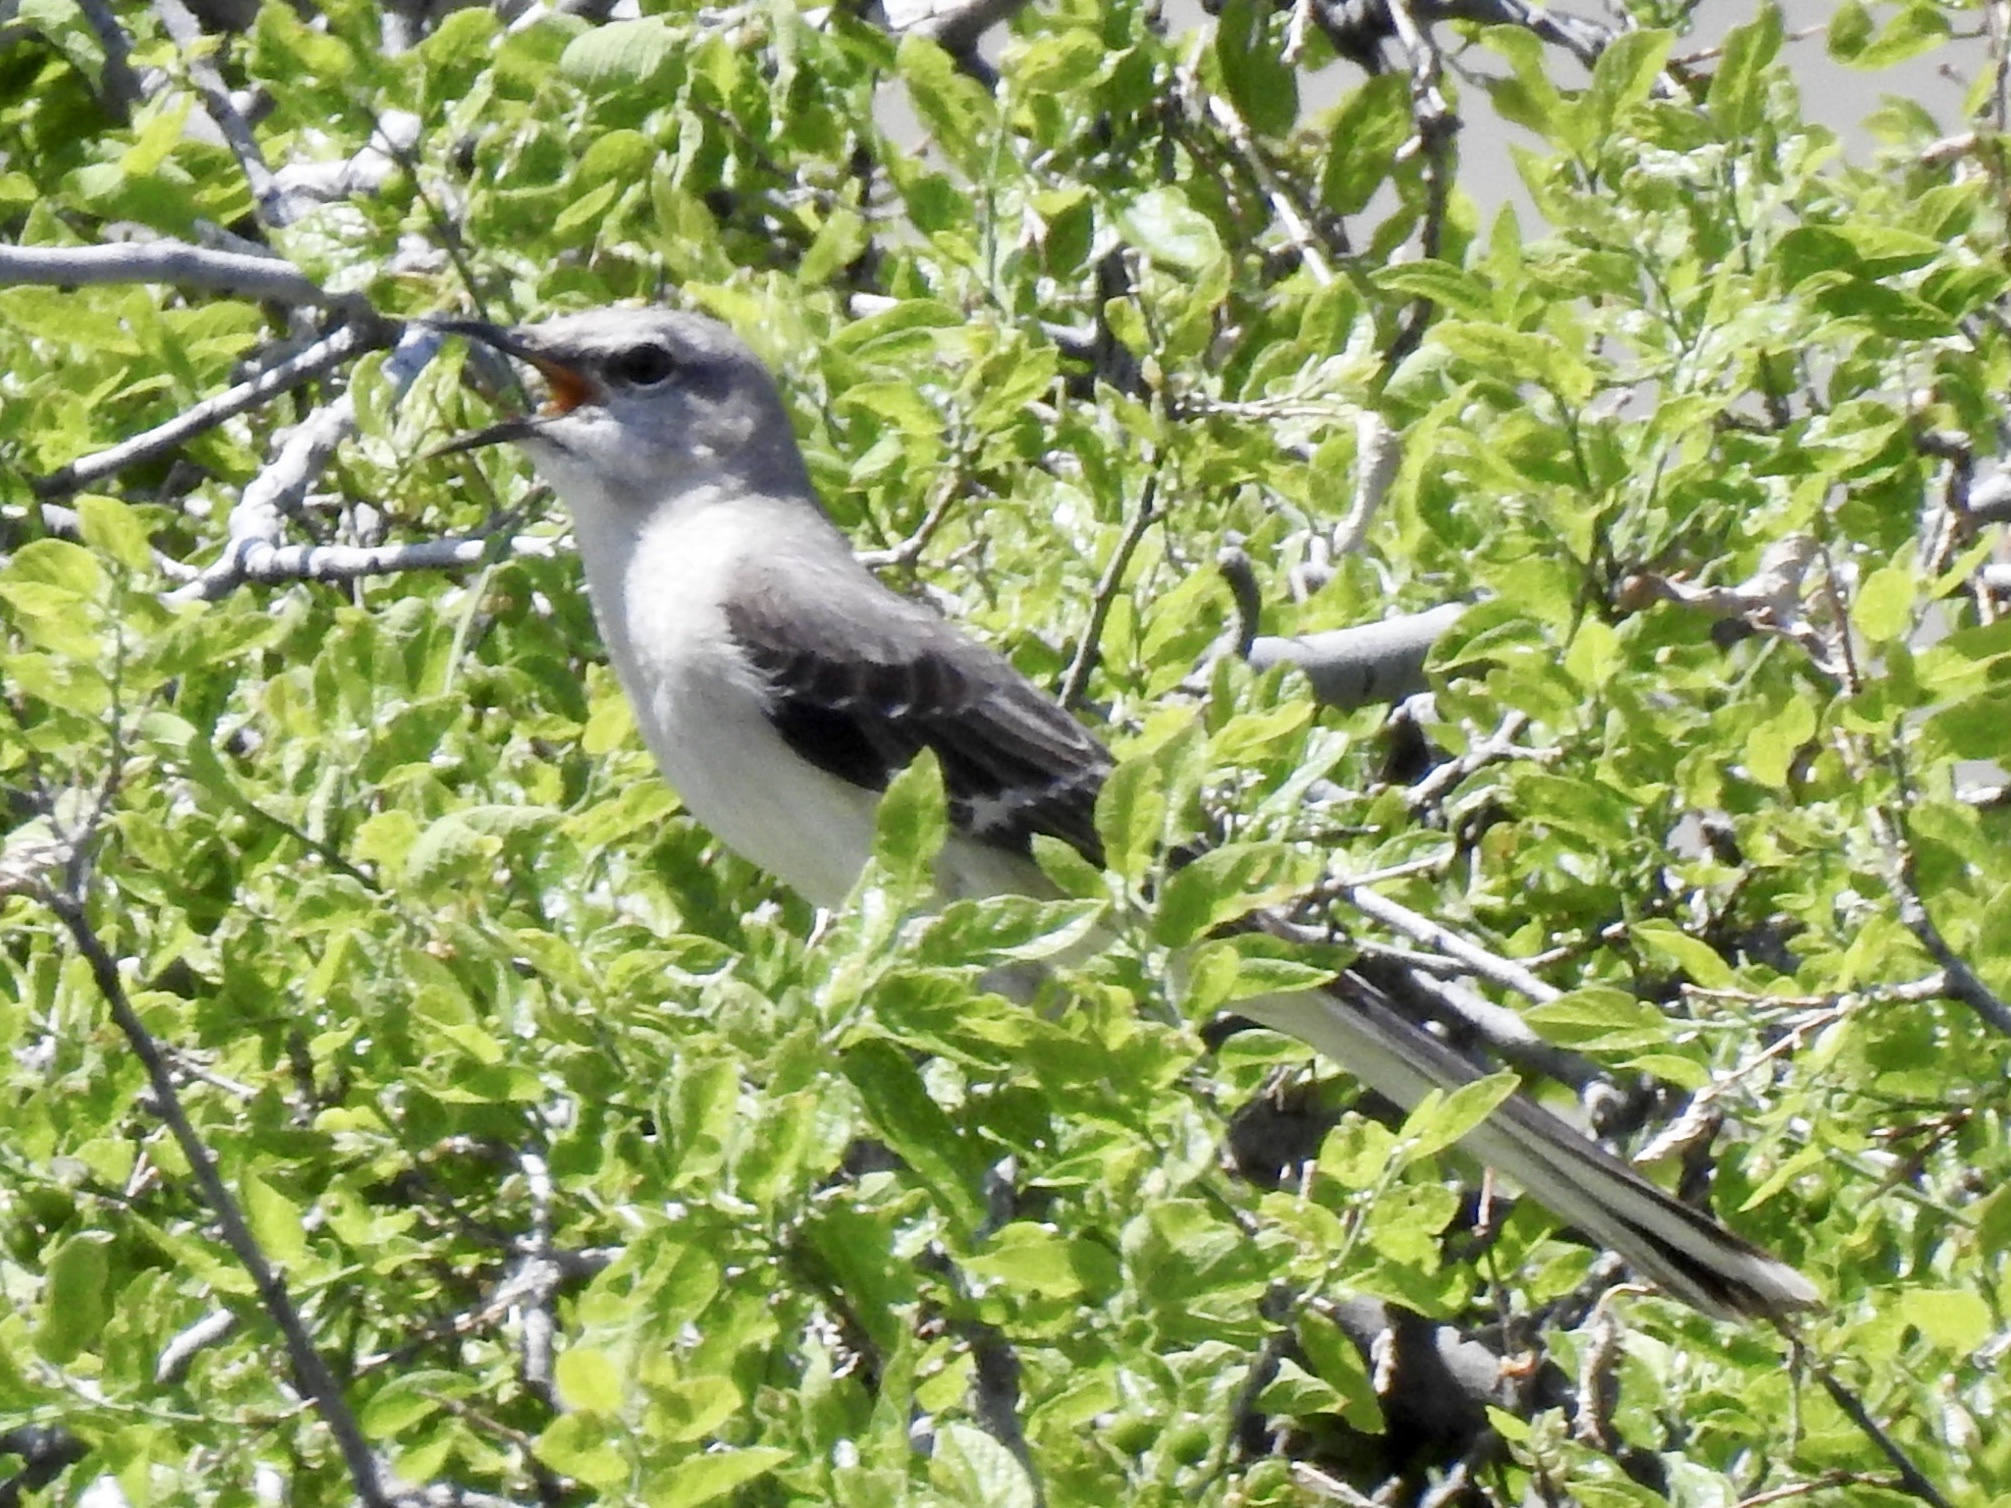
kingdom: Animalia
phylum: Chordata
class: Aves
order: Passeriformes
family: Mimidae
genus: Mimus
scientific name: Mimus polyglottos
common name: Northern mockingbird
